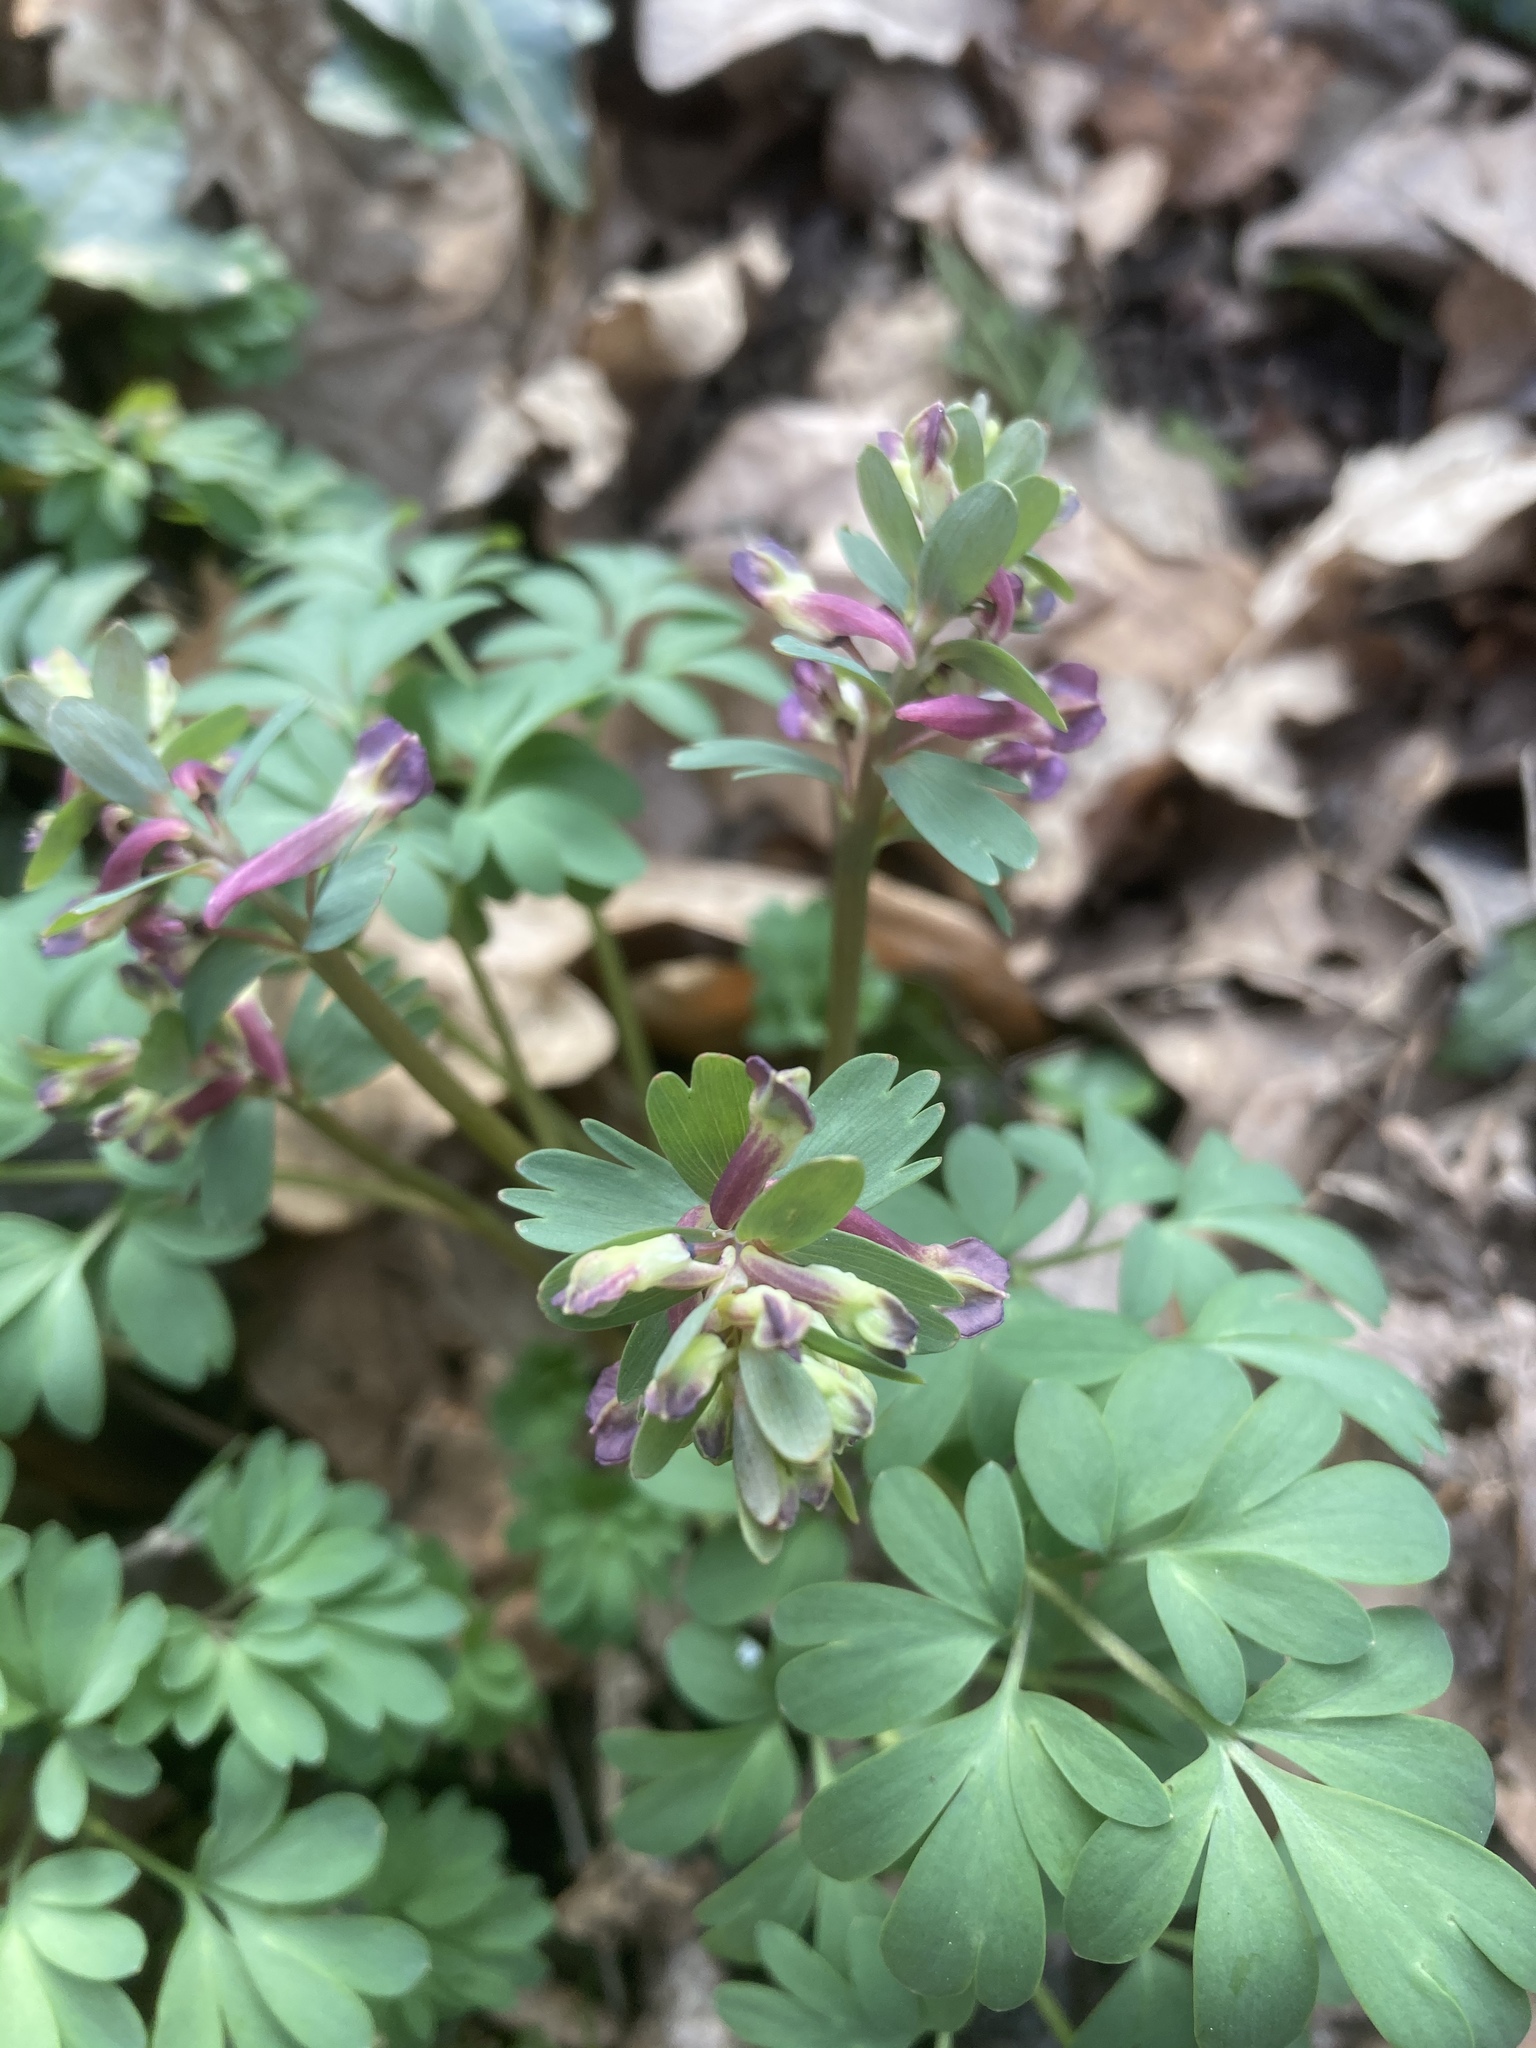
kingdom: Plantae
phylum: Tracheophyta
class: Magnoliopsida
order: Ranunculales
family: Papaveraceae
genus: Corydalis
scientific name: Corydalis solida
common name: Bird-in-a-bush
